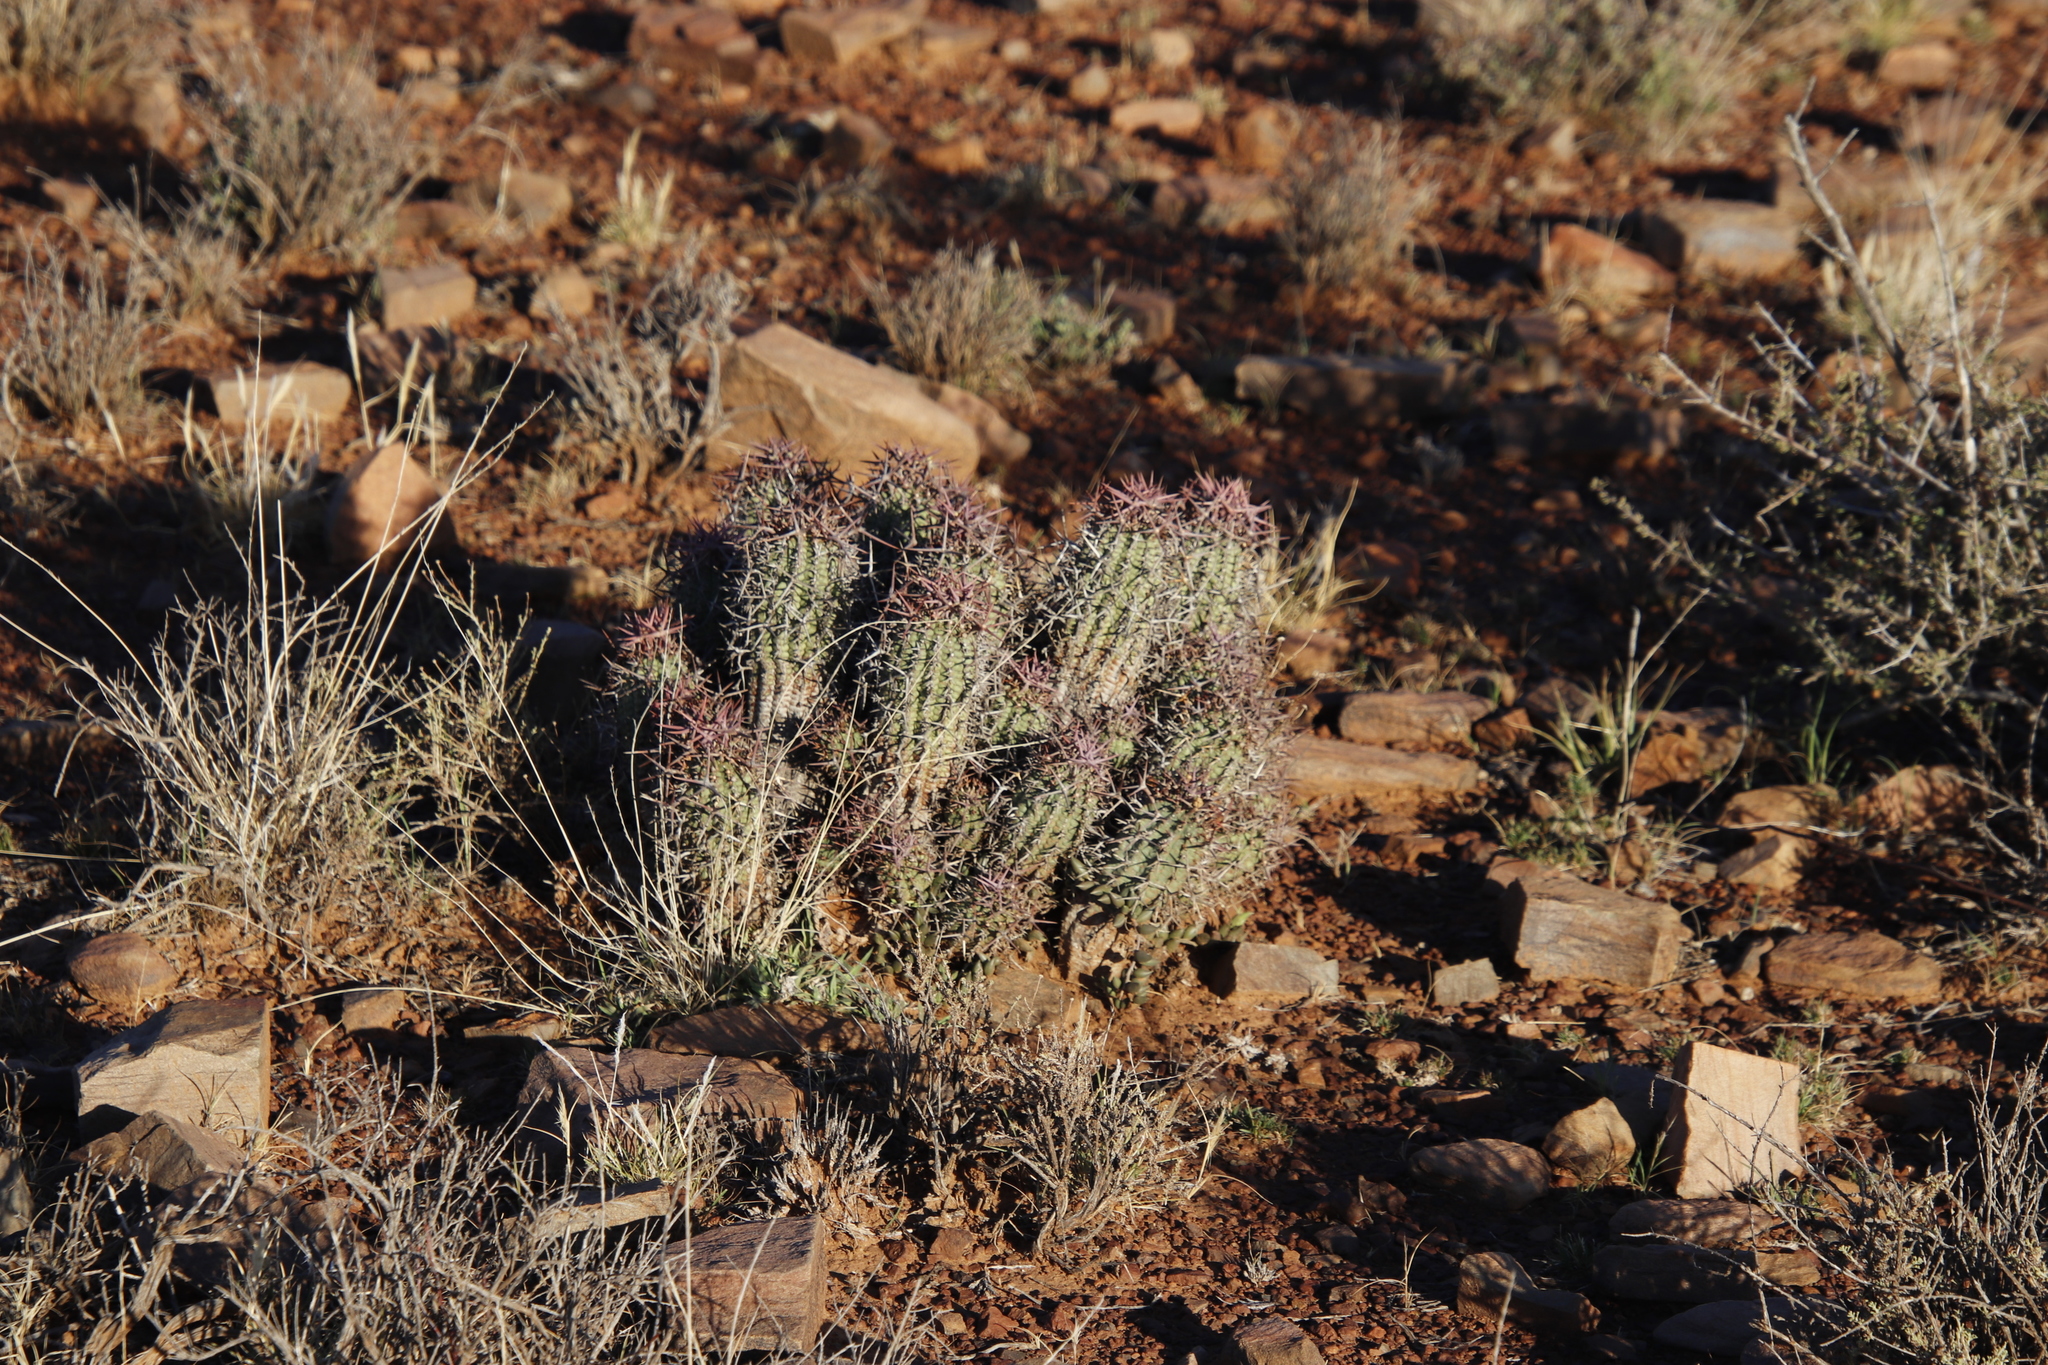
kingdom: Plantae
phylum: Tracheophyta
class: Magnoliopsida
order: Malpighiales
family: Euphorbiaceae
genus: Euphorbia
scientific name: Euphorbia stellispina
